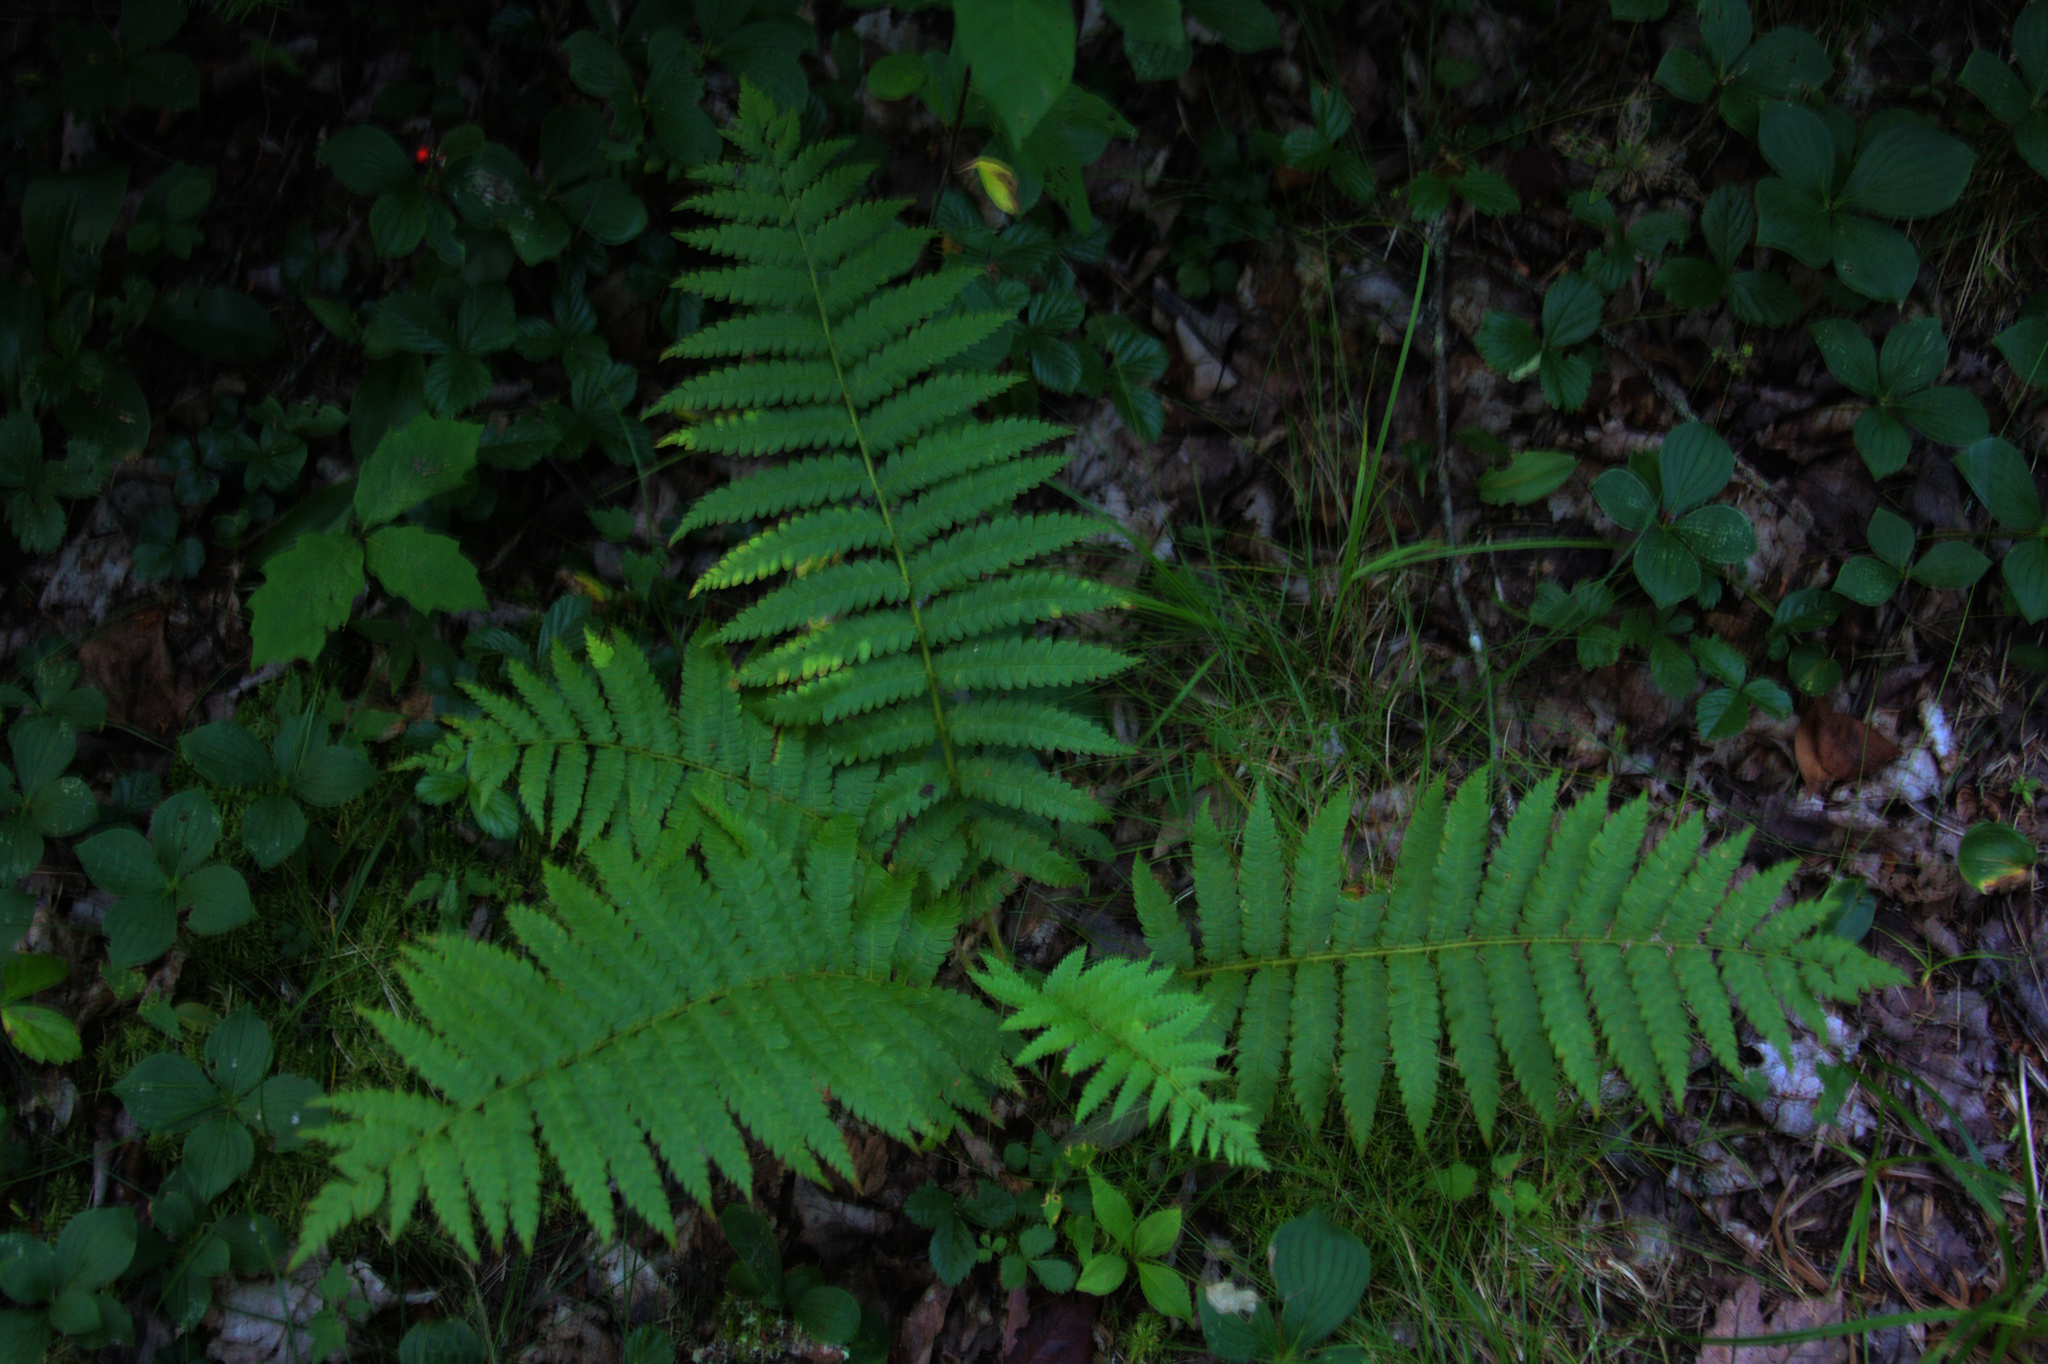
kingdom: Plantae
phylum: Tracheophyta
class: Magnoliopsida
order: Cornales
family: Cornaceae
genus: Cornus
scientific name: Cornus canadensis
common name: Creeping dogwood
